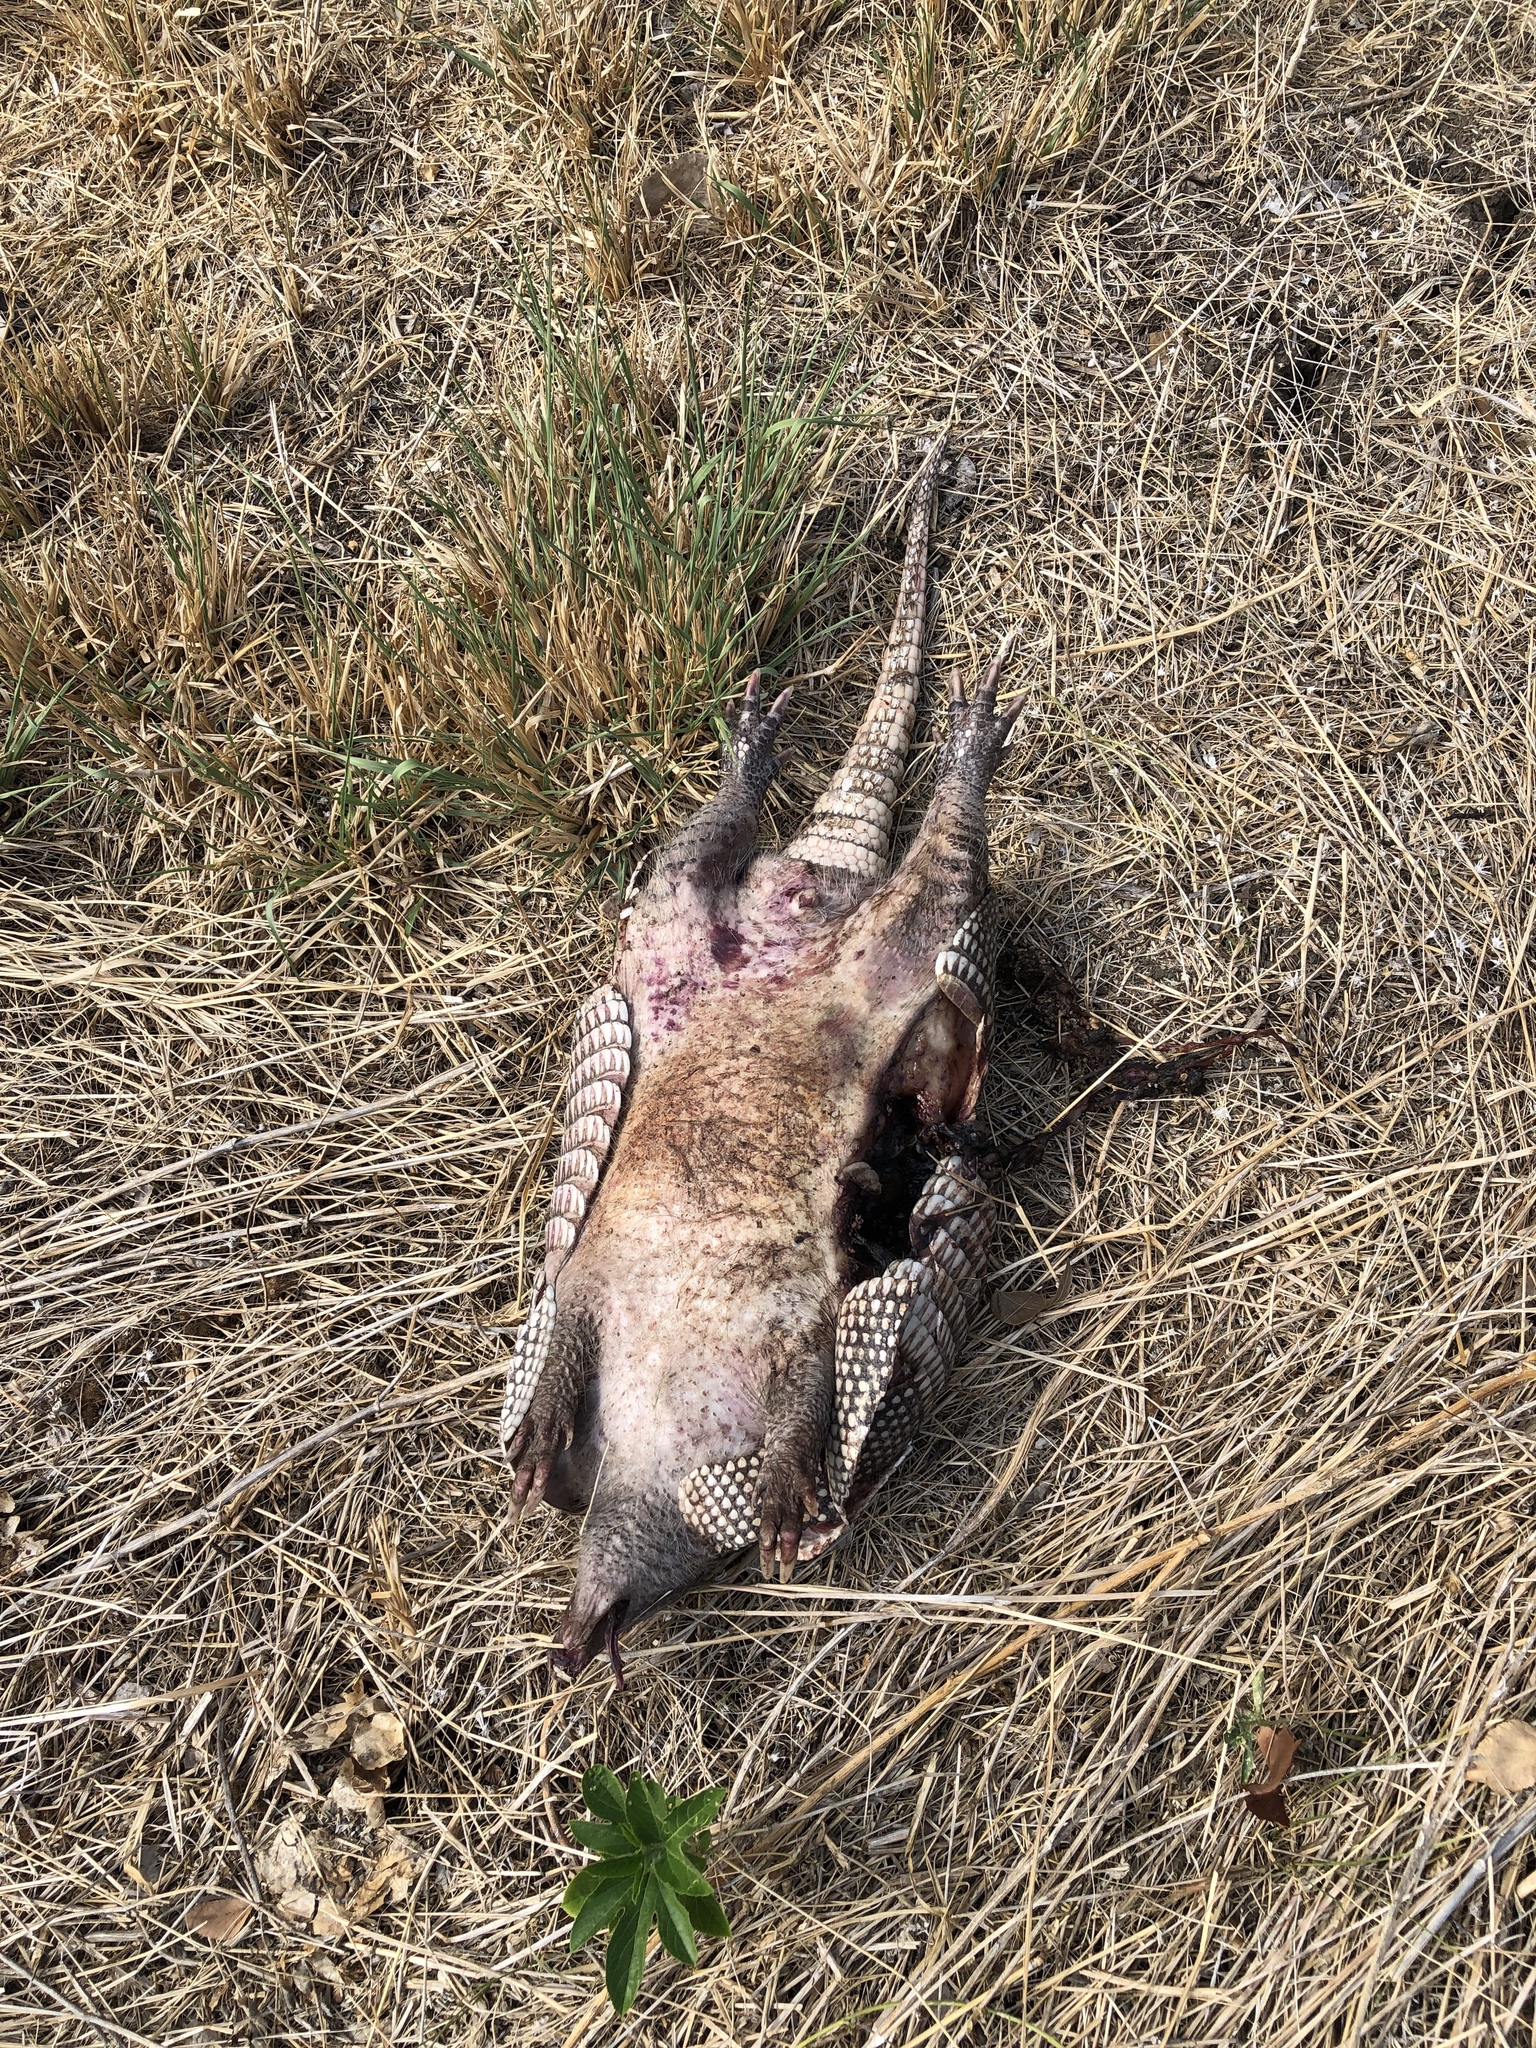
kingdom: Animalia
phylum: Chordata
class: Mammalia
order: Cingulata
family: Dasypodidae
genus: Dasypus
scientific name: Dasypus novemcinctus
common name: Nine-banded armadillo
